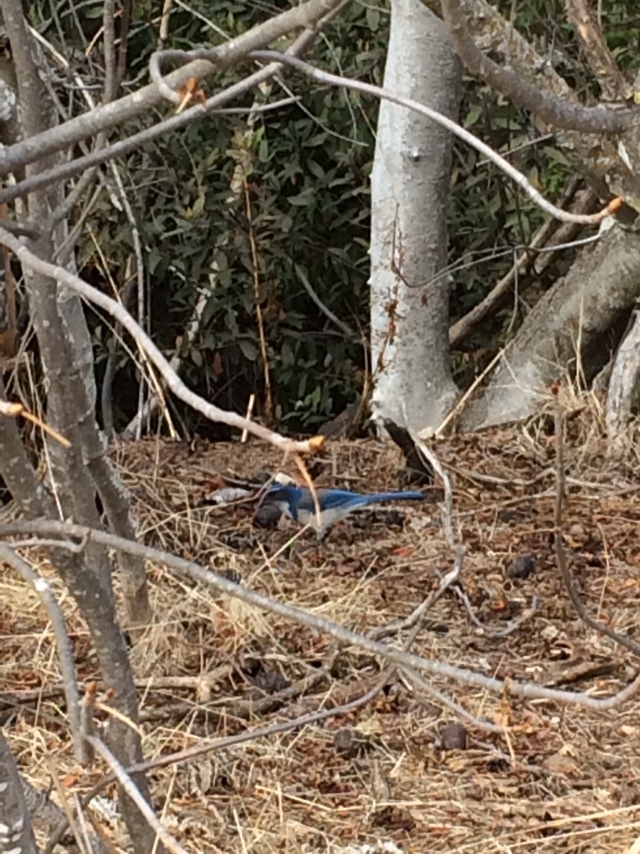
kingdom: Animalia
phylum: Chordata
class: Aves
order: Passeriformes
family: Corvidae
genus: Aphelocoma
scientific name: Aphelocoma californica
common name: California scrub-jay
